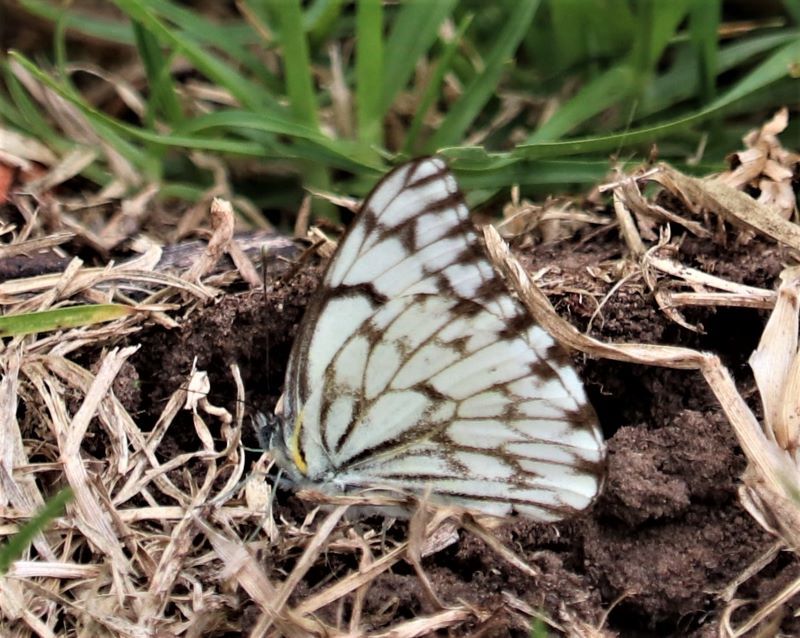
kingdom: Animalia
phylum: Arthropoda
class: Insecta
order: Lepidoptera
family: Pieridae
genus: Belenois
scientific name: Belenois gidica
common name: Pointed caper white
